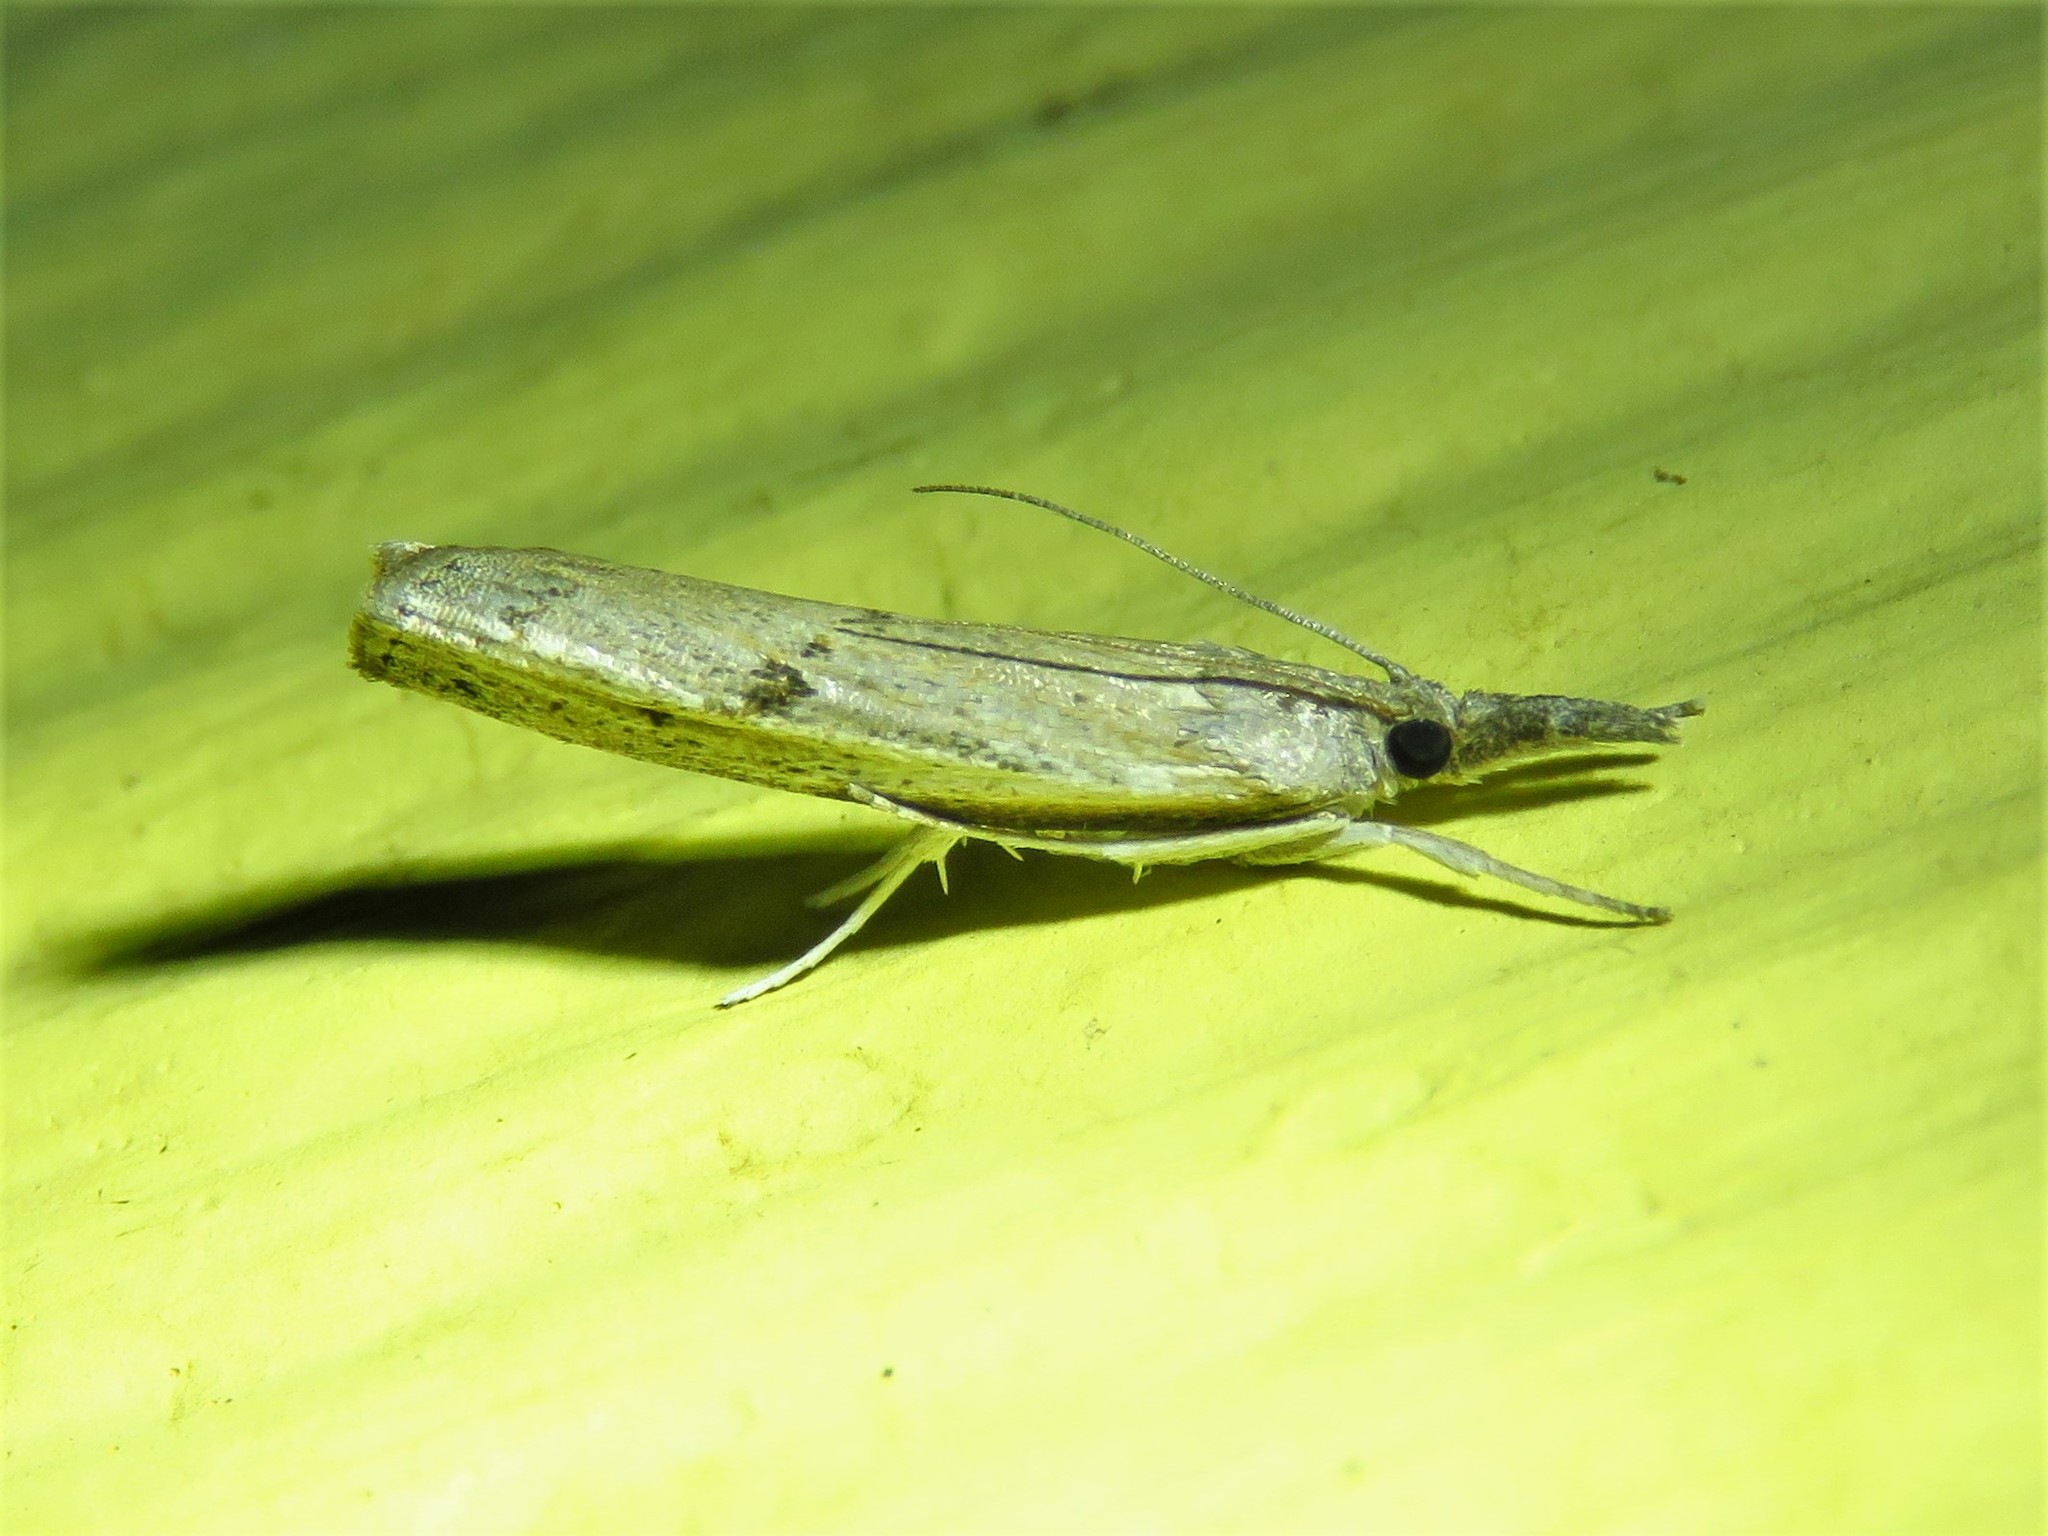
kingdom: Animalia
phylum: Arthropoda
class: Insecta
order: Lepidoptera
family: Crambidae
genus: Fissicrambus
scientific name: Fissicrambus mutabilis
